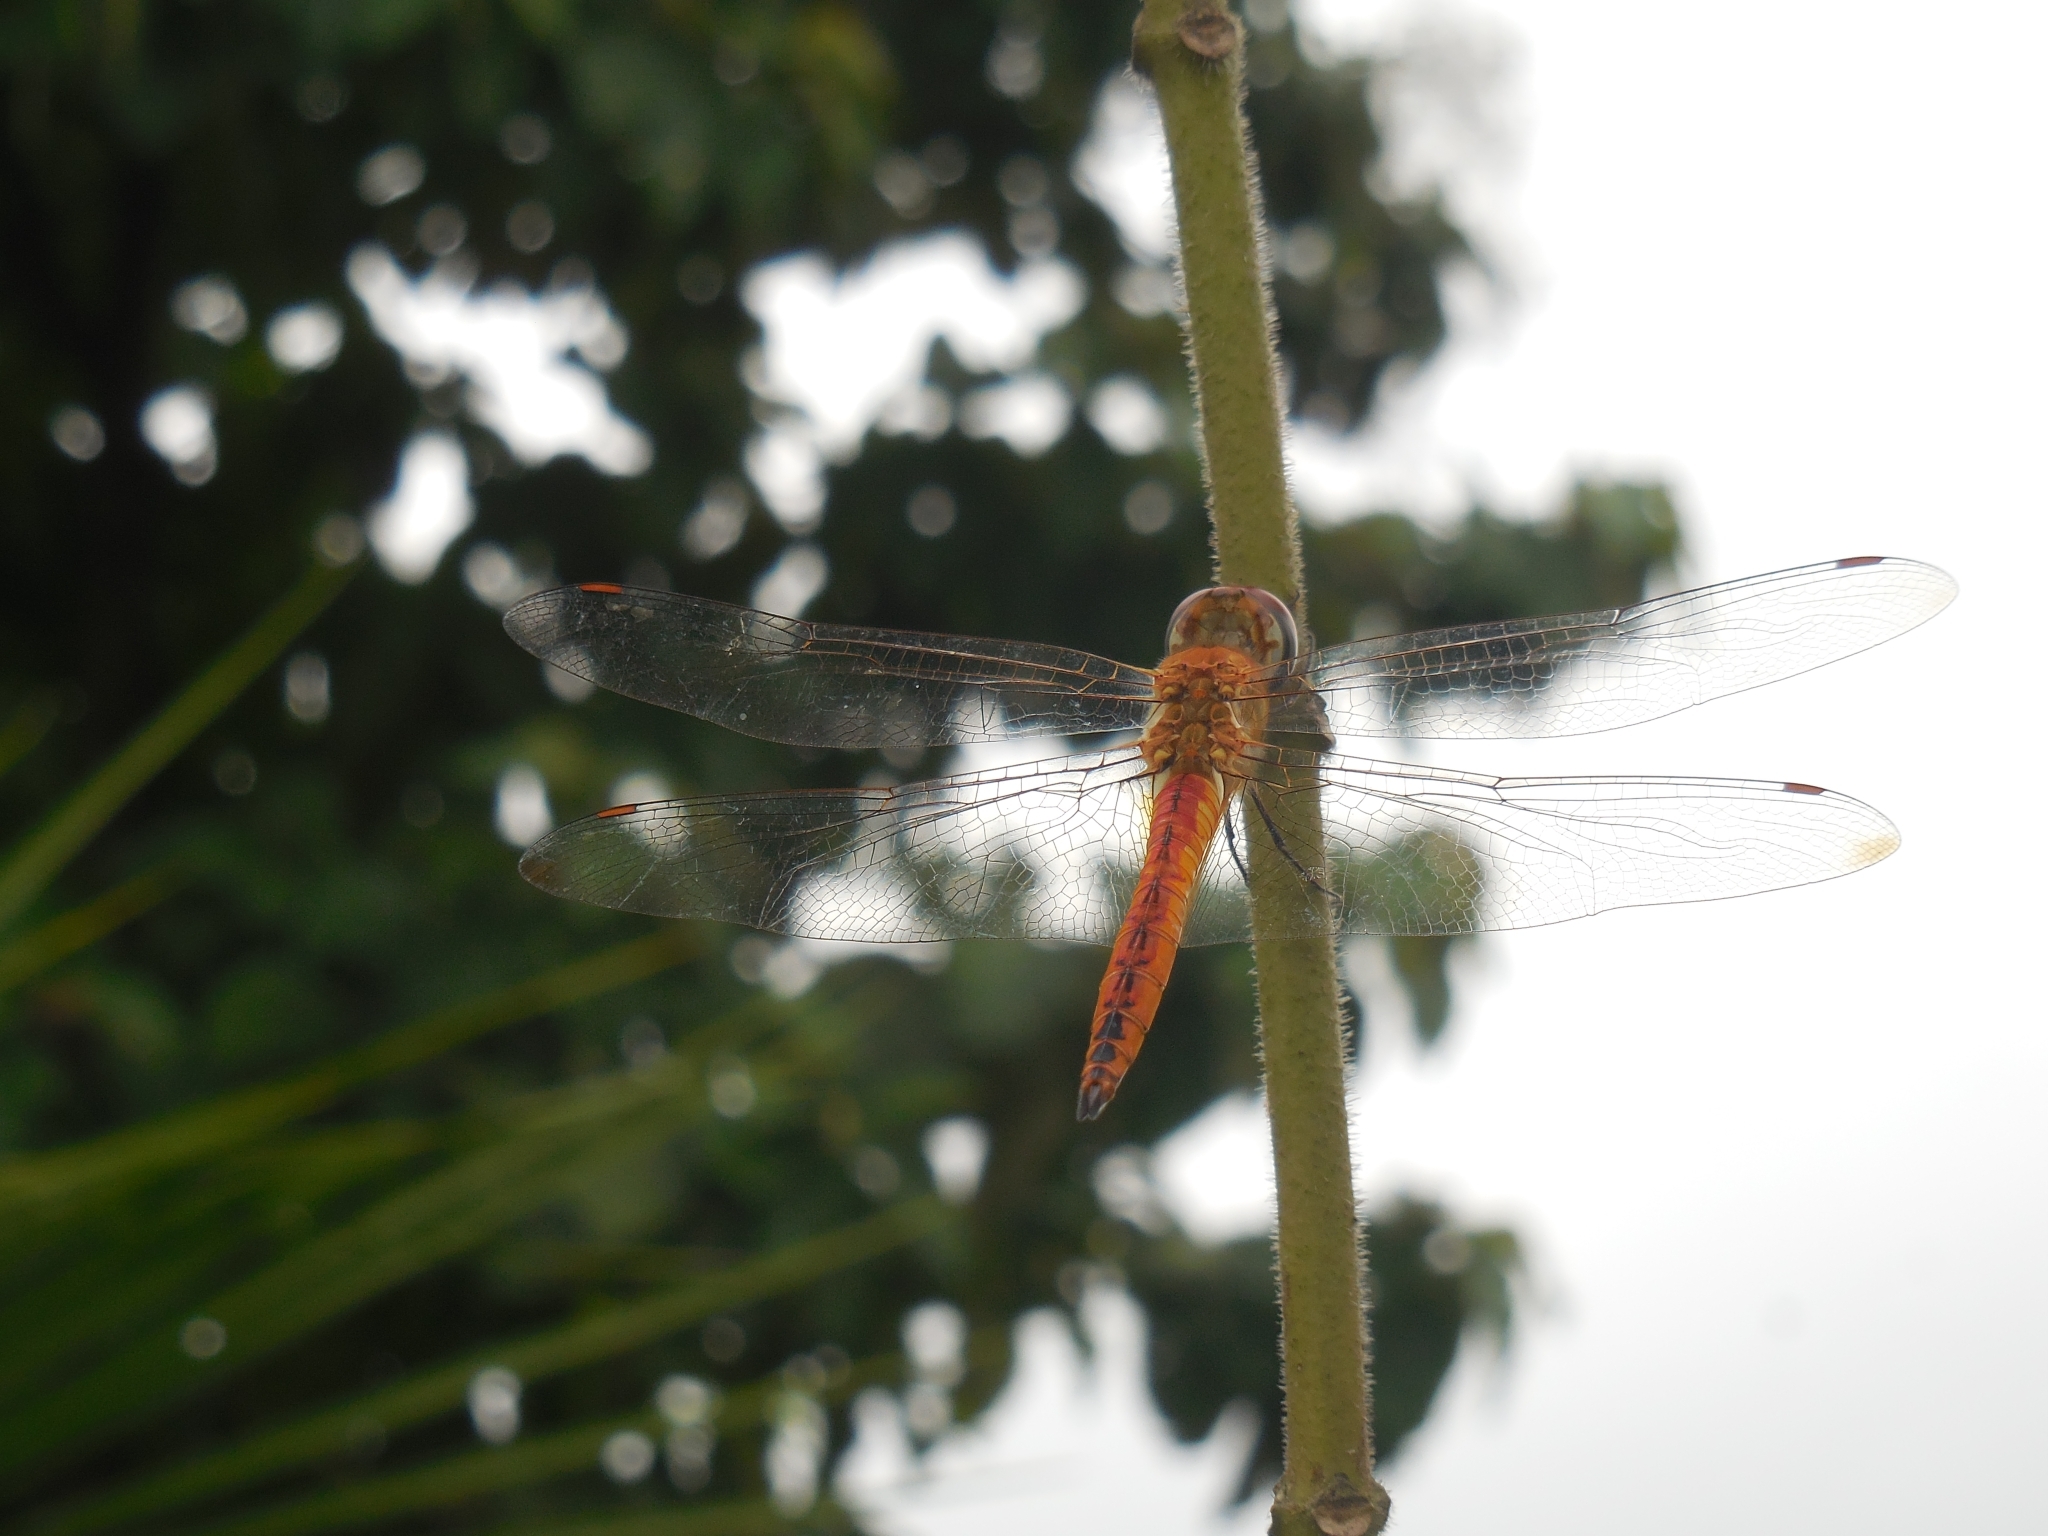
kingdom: Animalia
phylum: Arthropoda
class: Insecta
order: Odonata
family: Libellulidae
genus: Pantala
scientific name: Pantala flavescens
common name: Wandering glider
